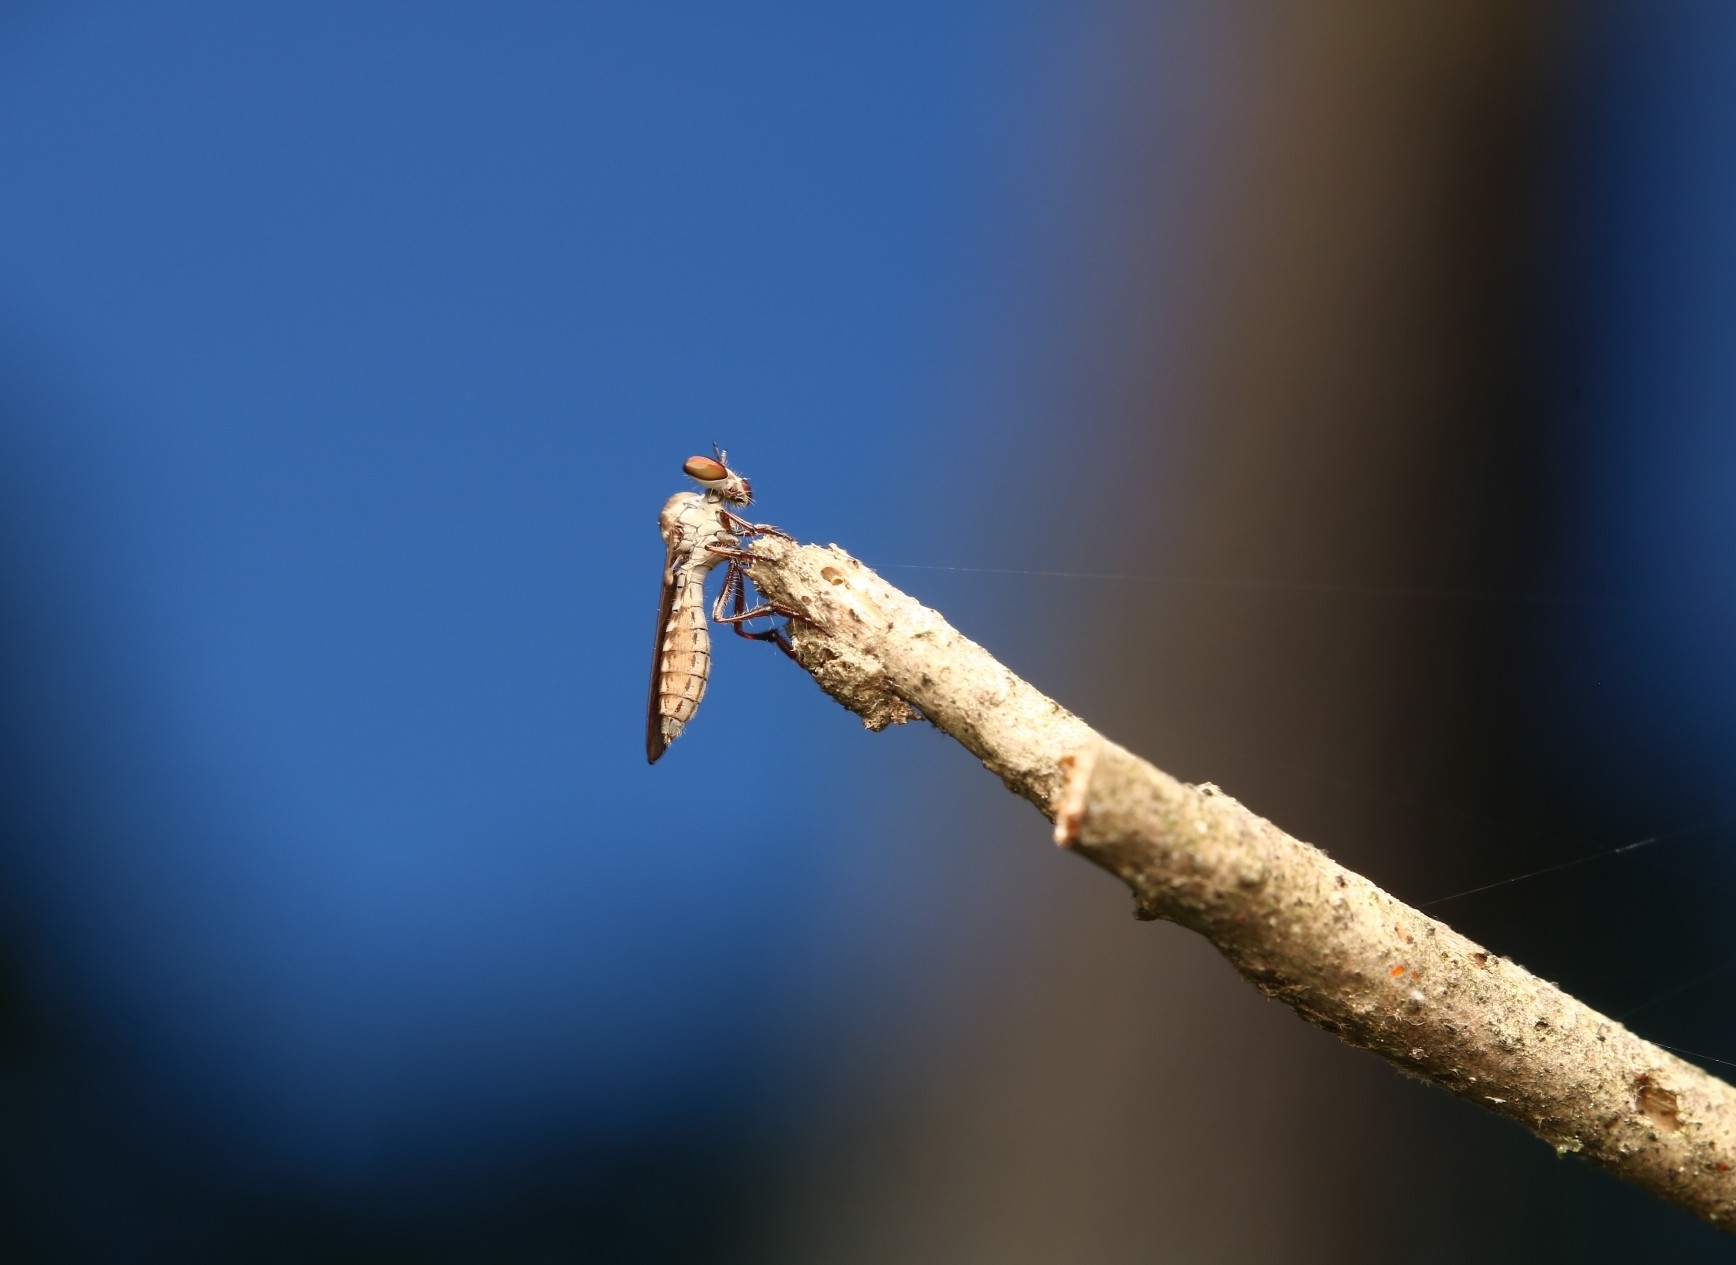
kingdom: Animalia
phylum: Arthropoda
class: Insecta
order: Diptera
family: Asilidae
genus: Holcocephala
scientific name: Holcocephala calva
